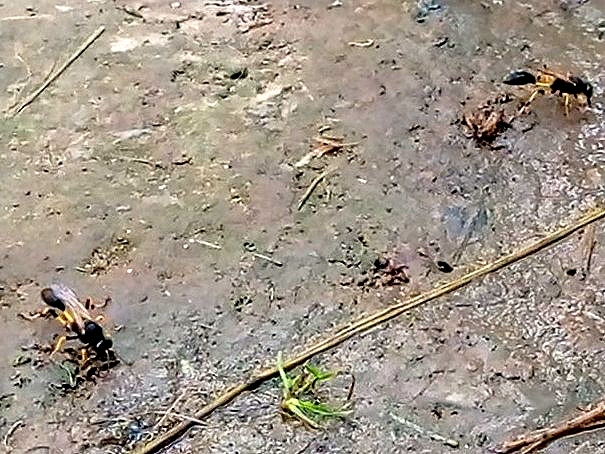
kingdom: Animalia
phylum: Arthropoda
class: Insecta
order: Hymenoptera
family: Sphecidae
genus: Sceliphron
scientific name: Sceliphron destillatorium
